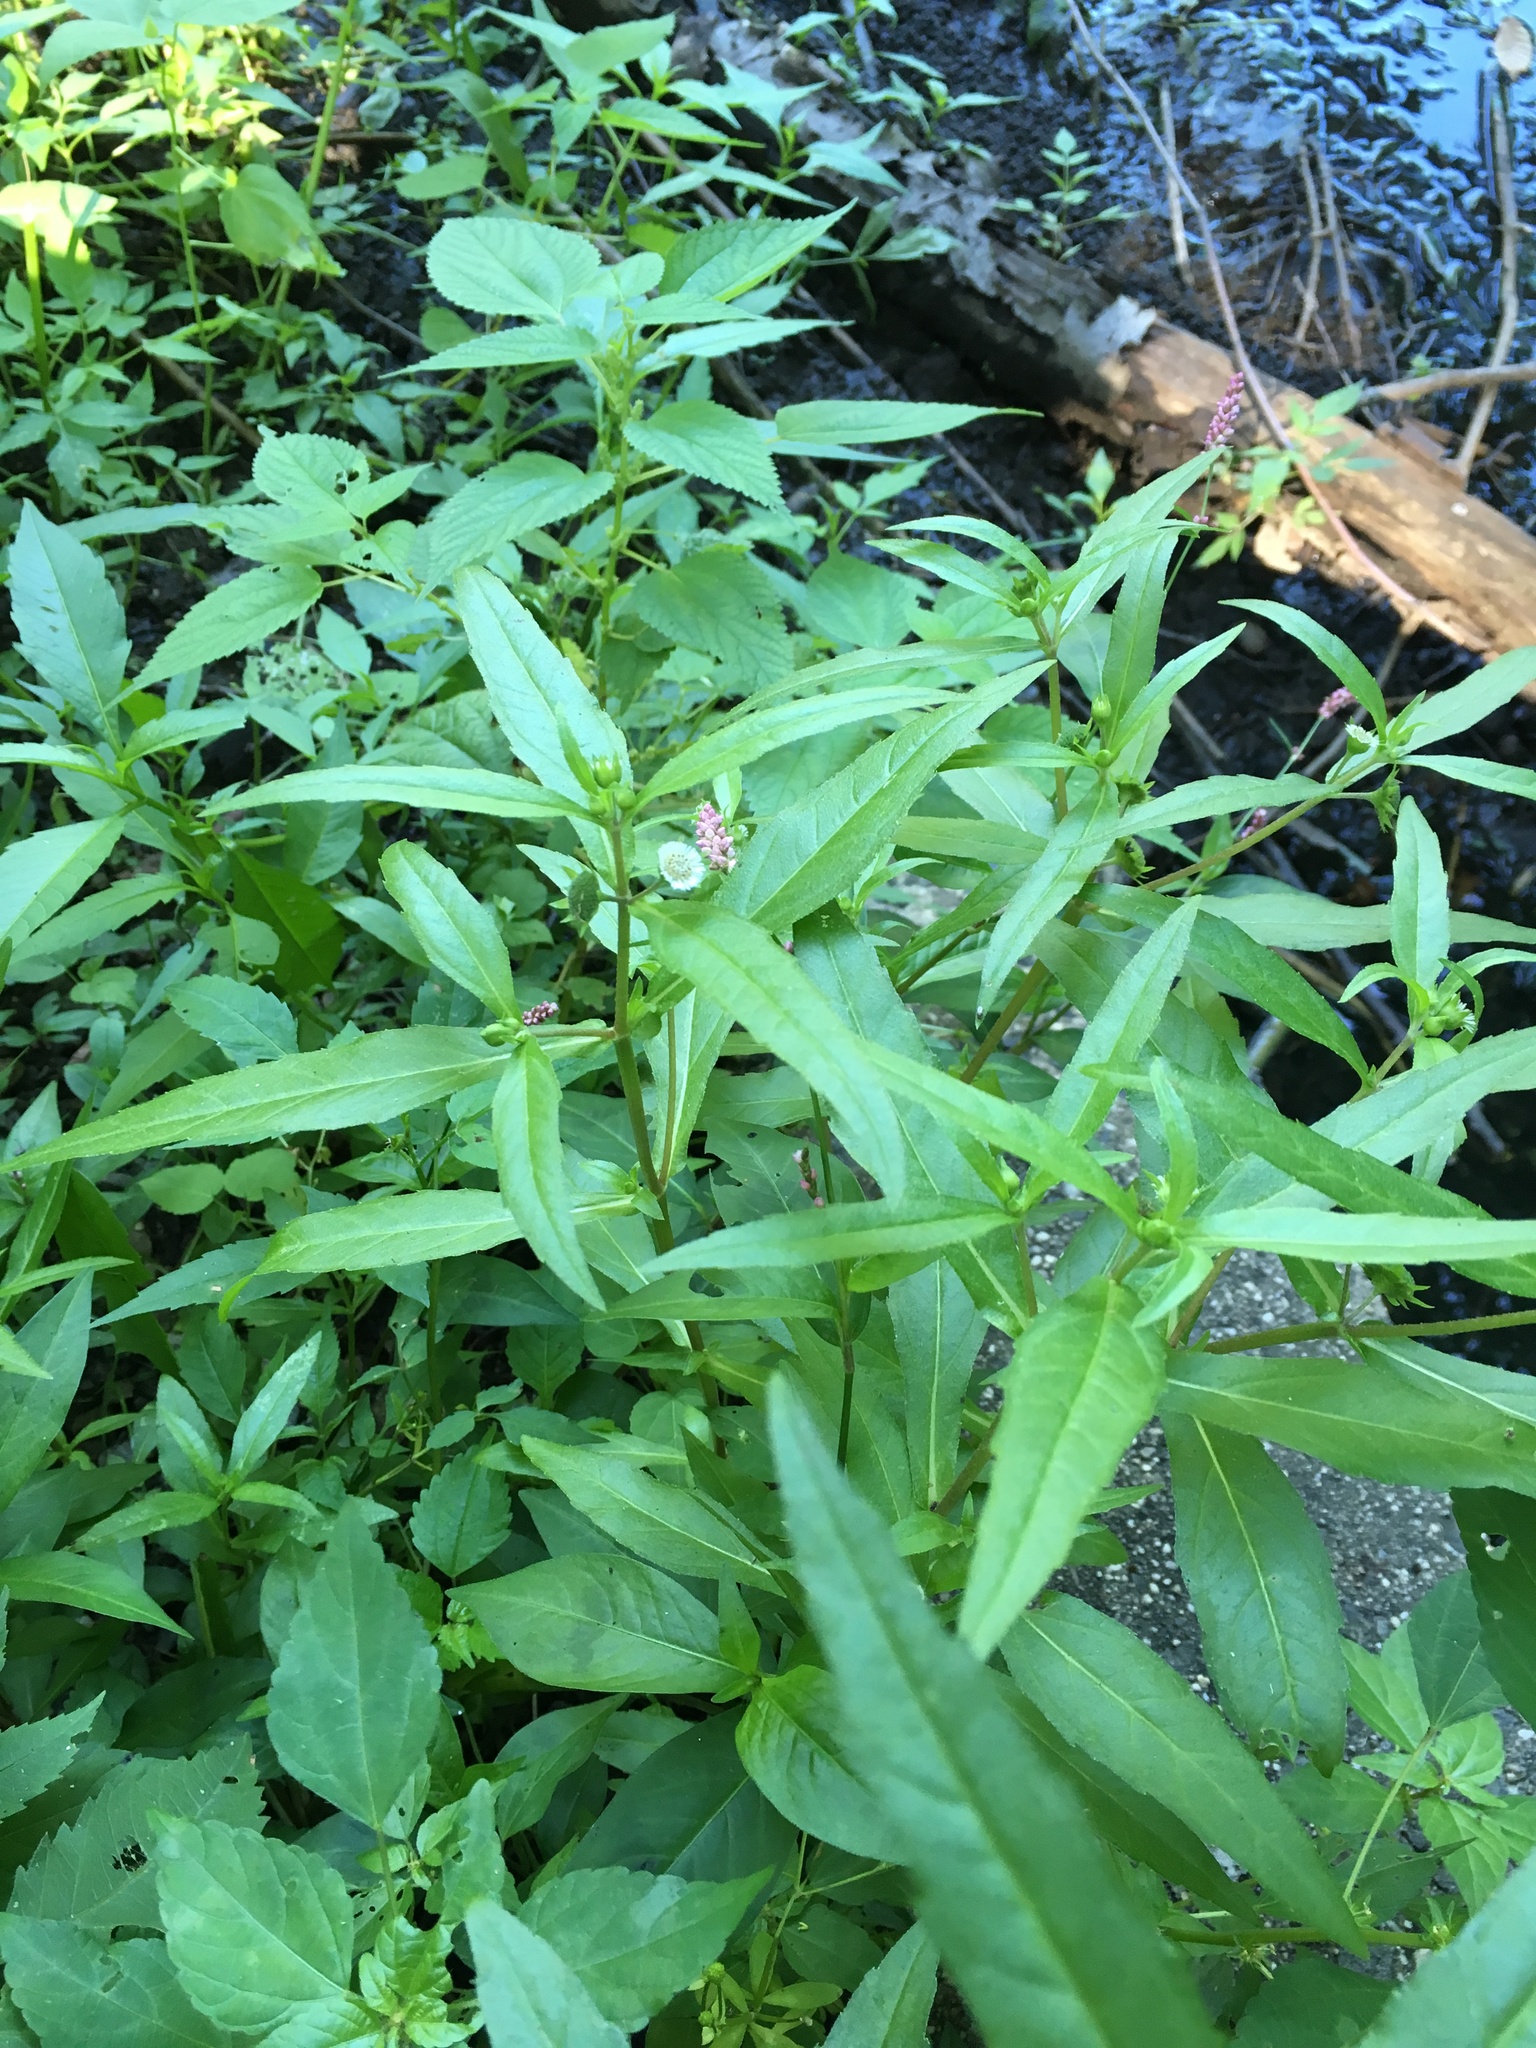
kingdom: Plantae
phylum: Tracheophyta
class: Magnoliopsida
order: Asterales
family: Asteraceae
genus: Eclipta
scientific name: Eclipta prostrata
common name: False daisy
